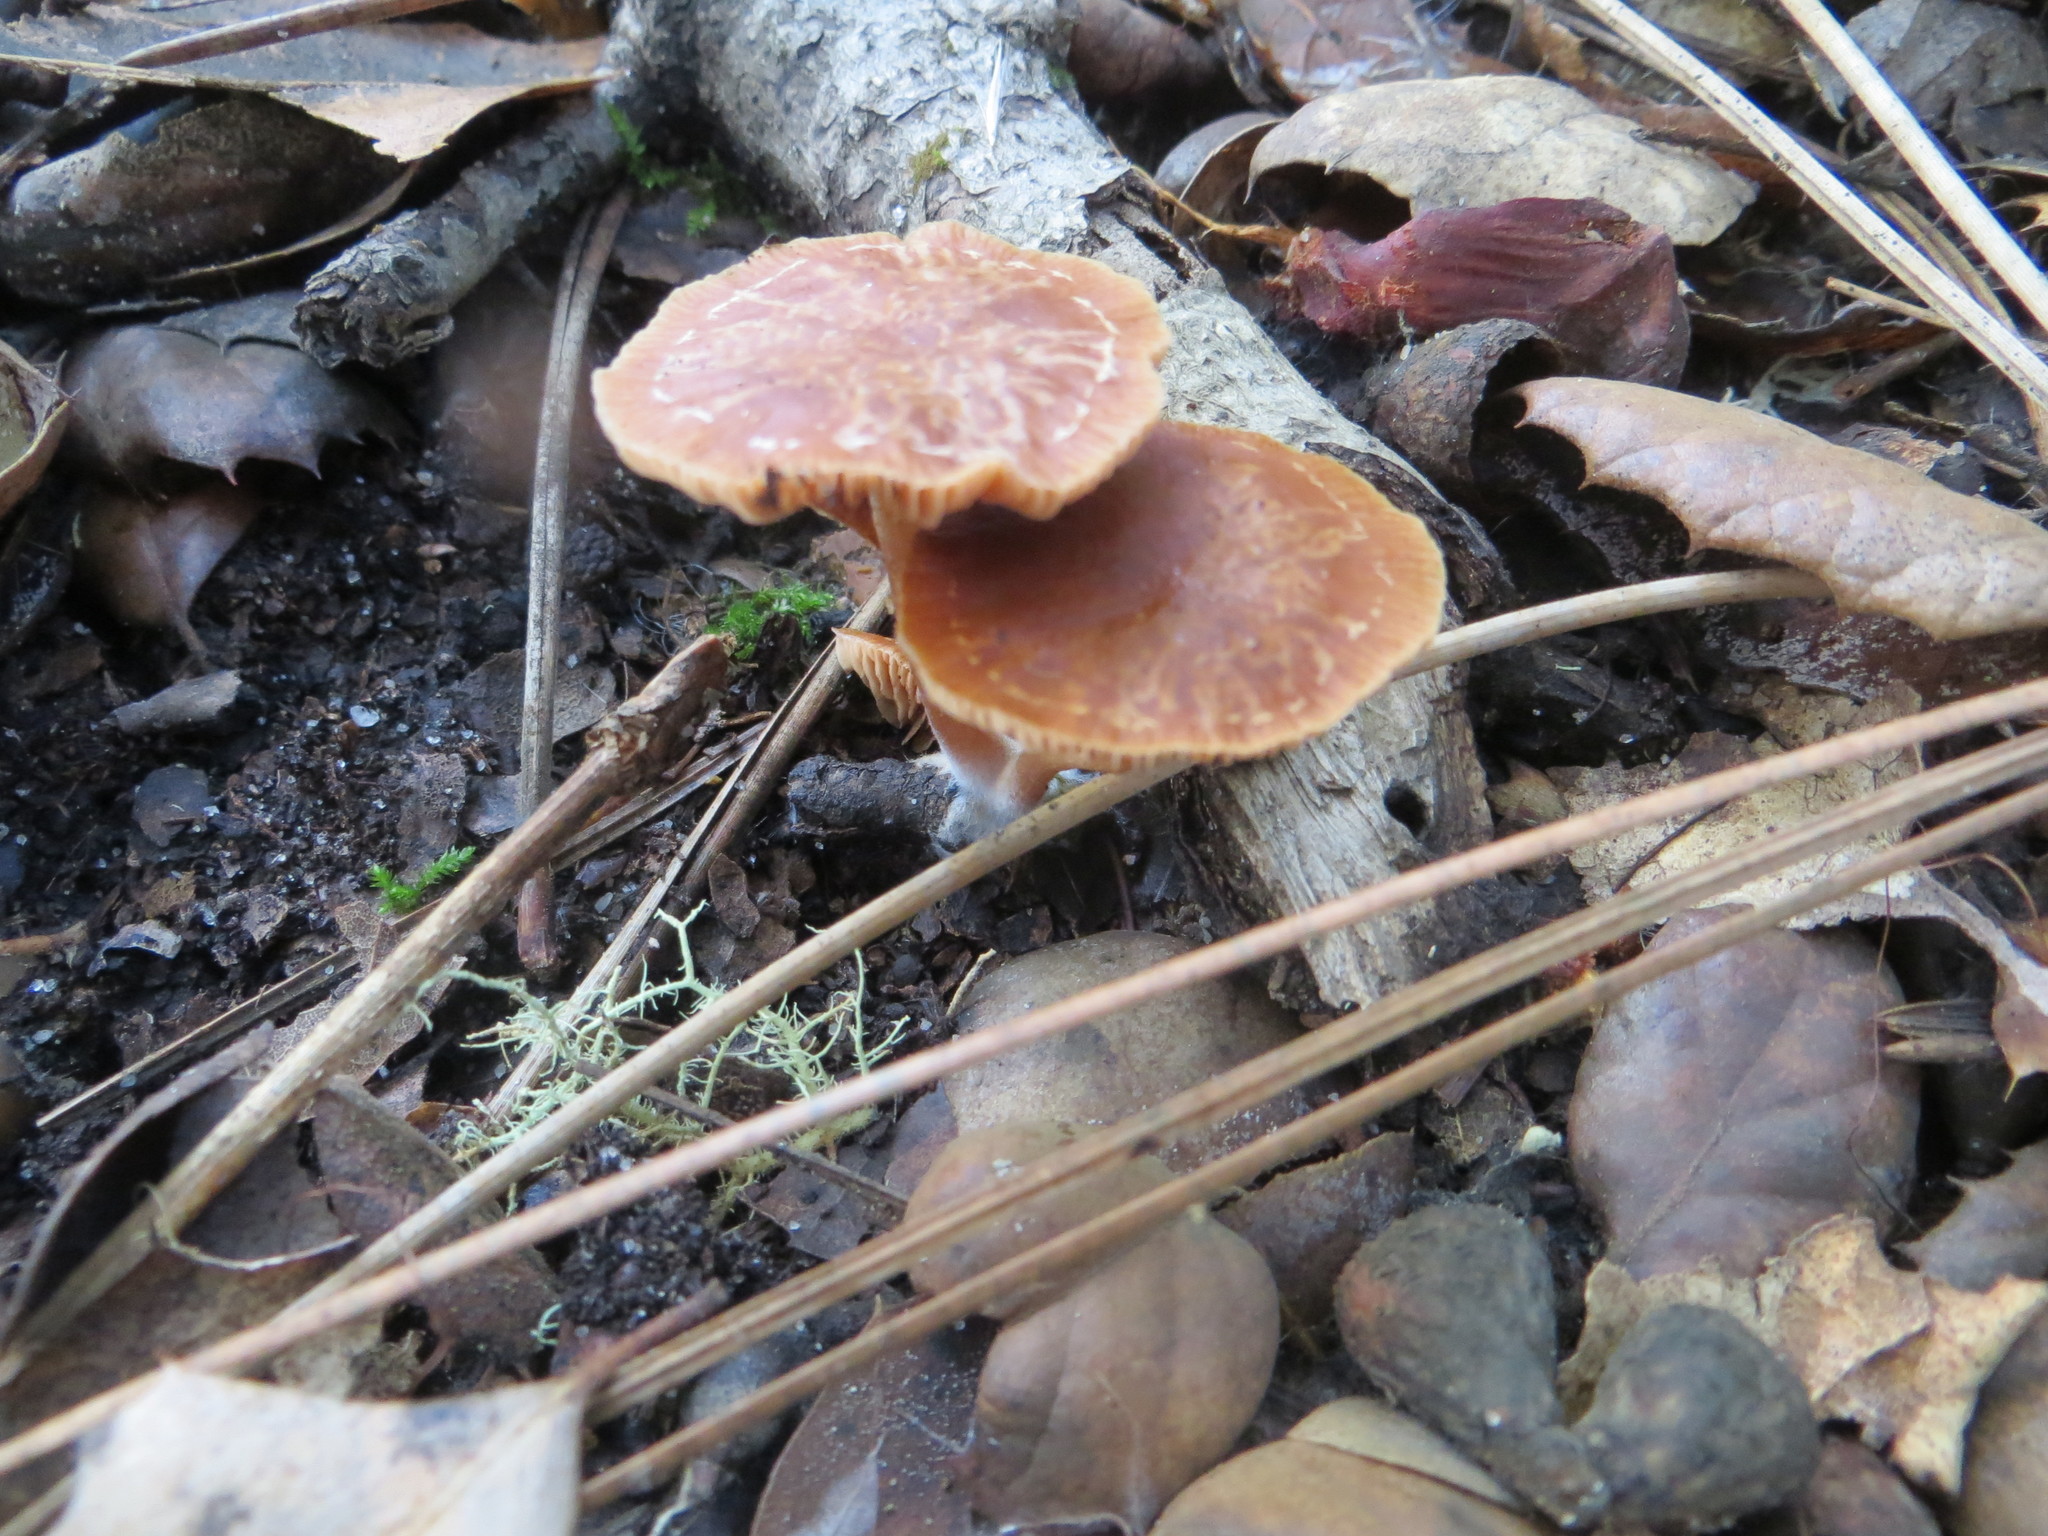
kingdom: Fungi
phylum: Basidiomycota
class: Agaricomycetes
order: Agaricales
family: Tubariaceae
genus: Tubaria
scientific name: Tubaria furfuracea
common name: Scurfy twiglet
